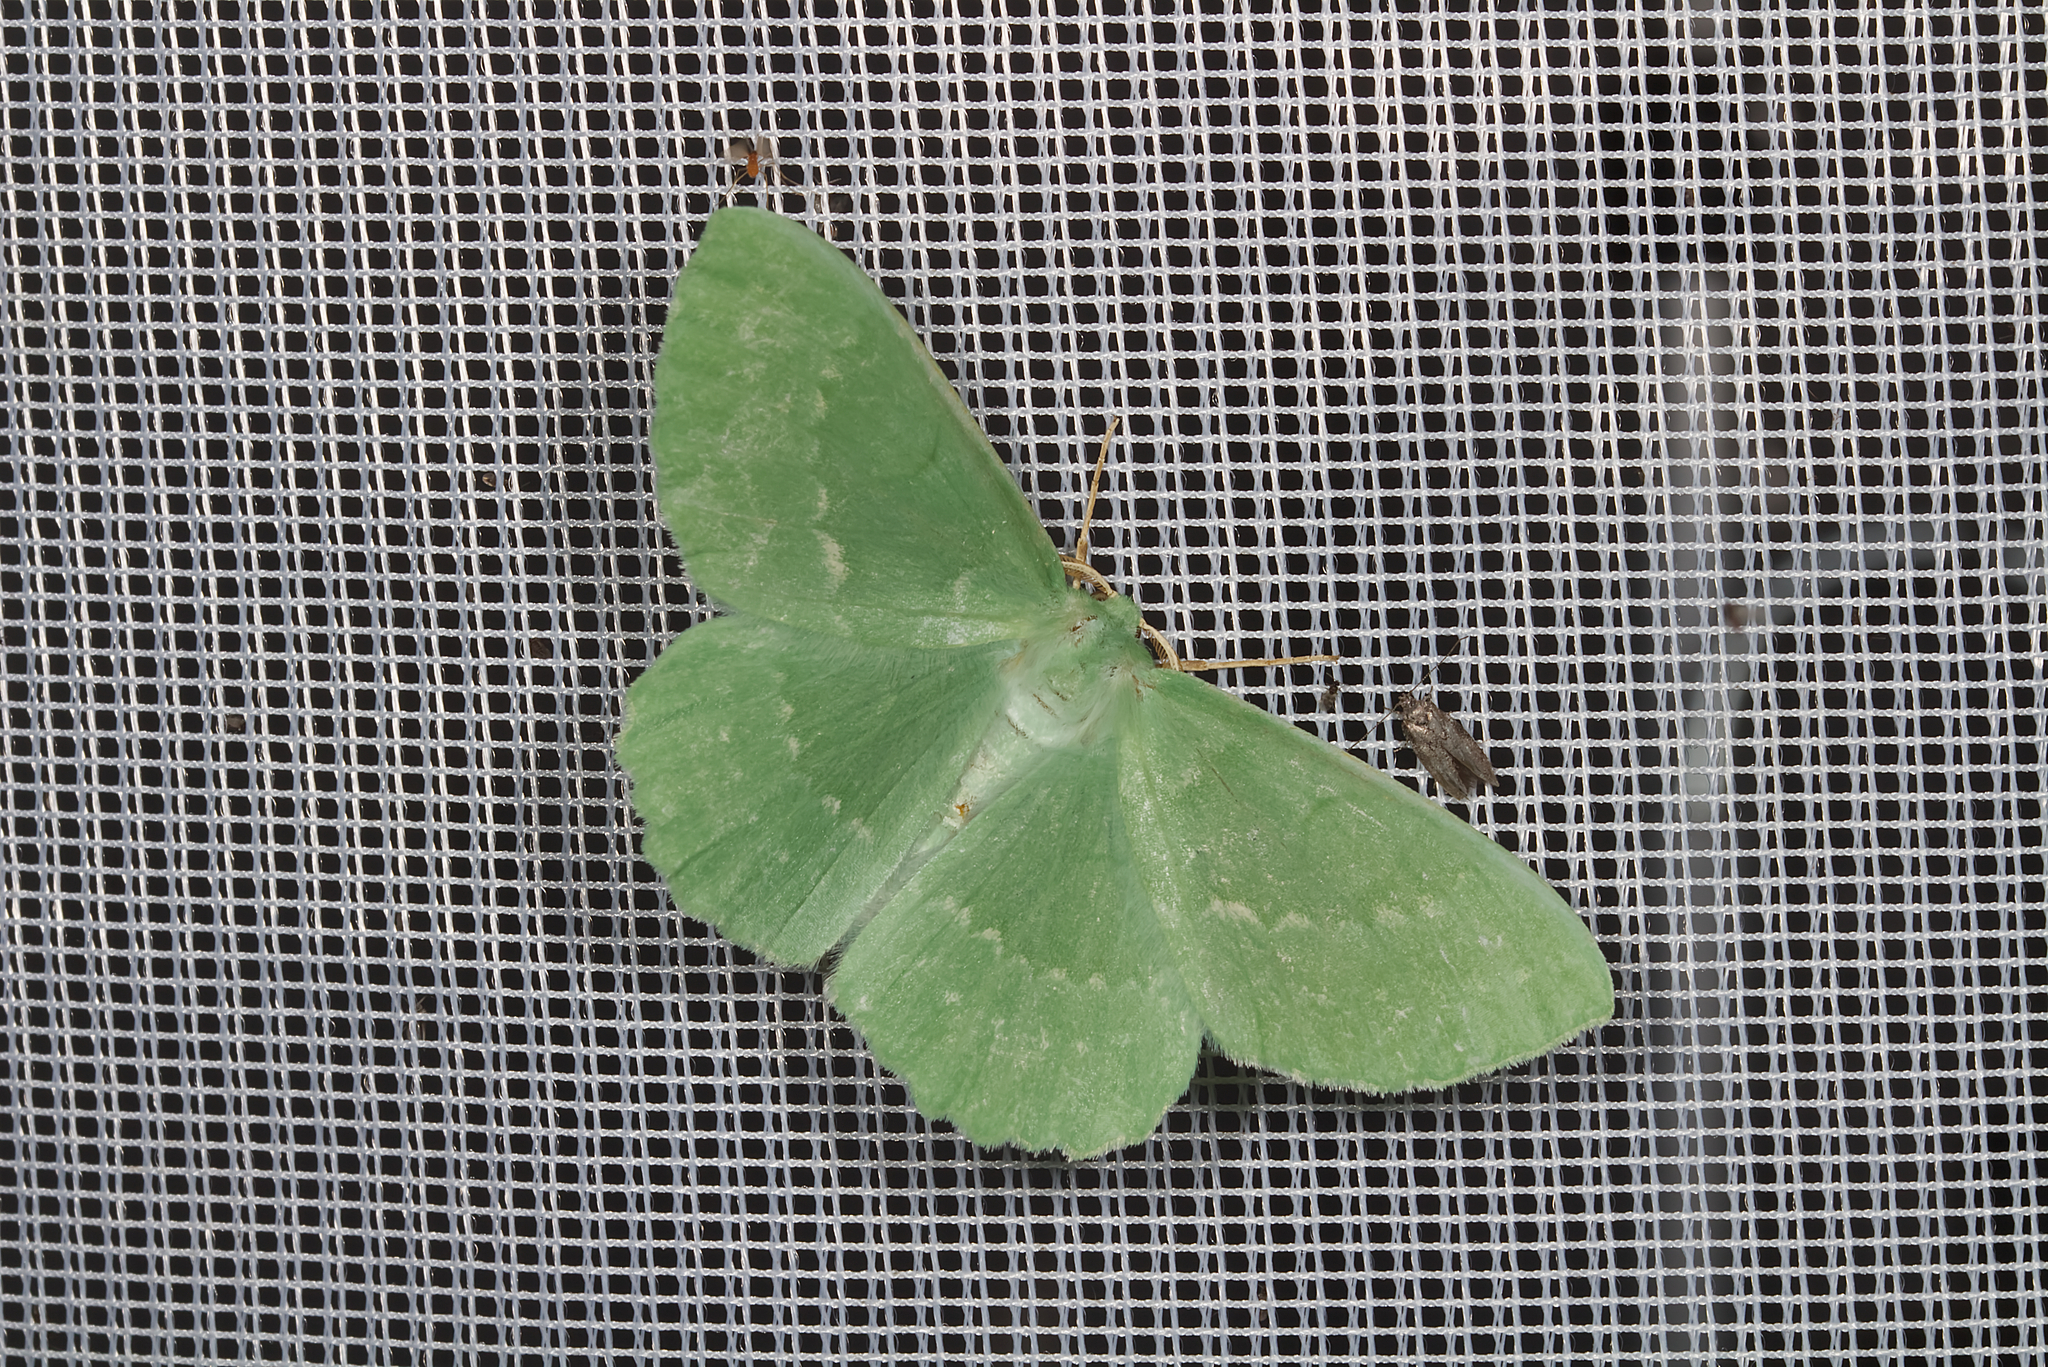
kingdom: Animalia
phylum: Arthropoda
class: Insecta
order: Lepidoptera
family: Geometridae
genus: Geometra
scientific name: Geometra papilionaria
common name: Large emerald
